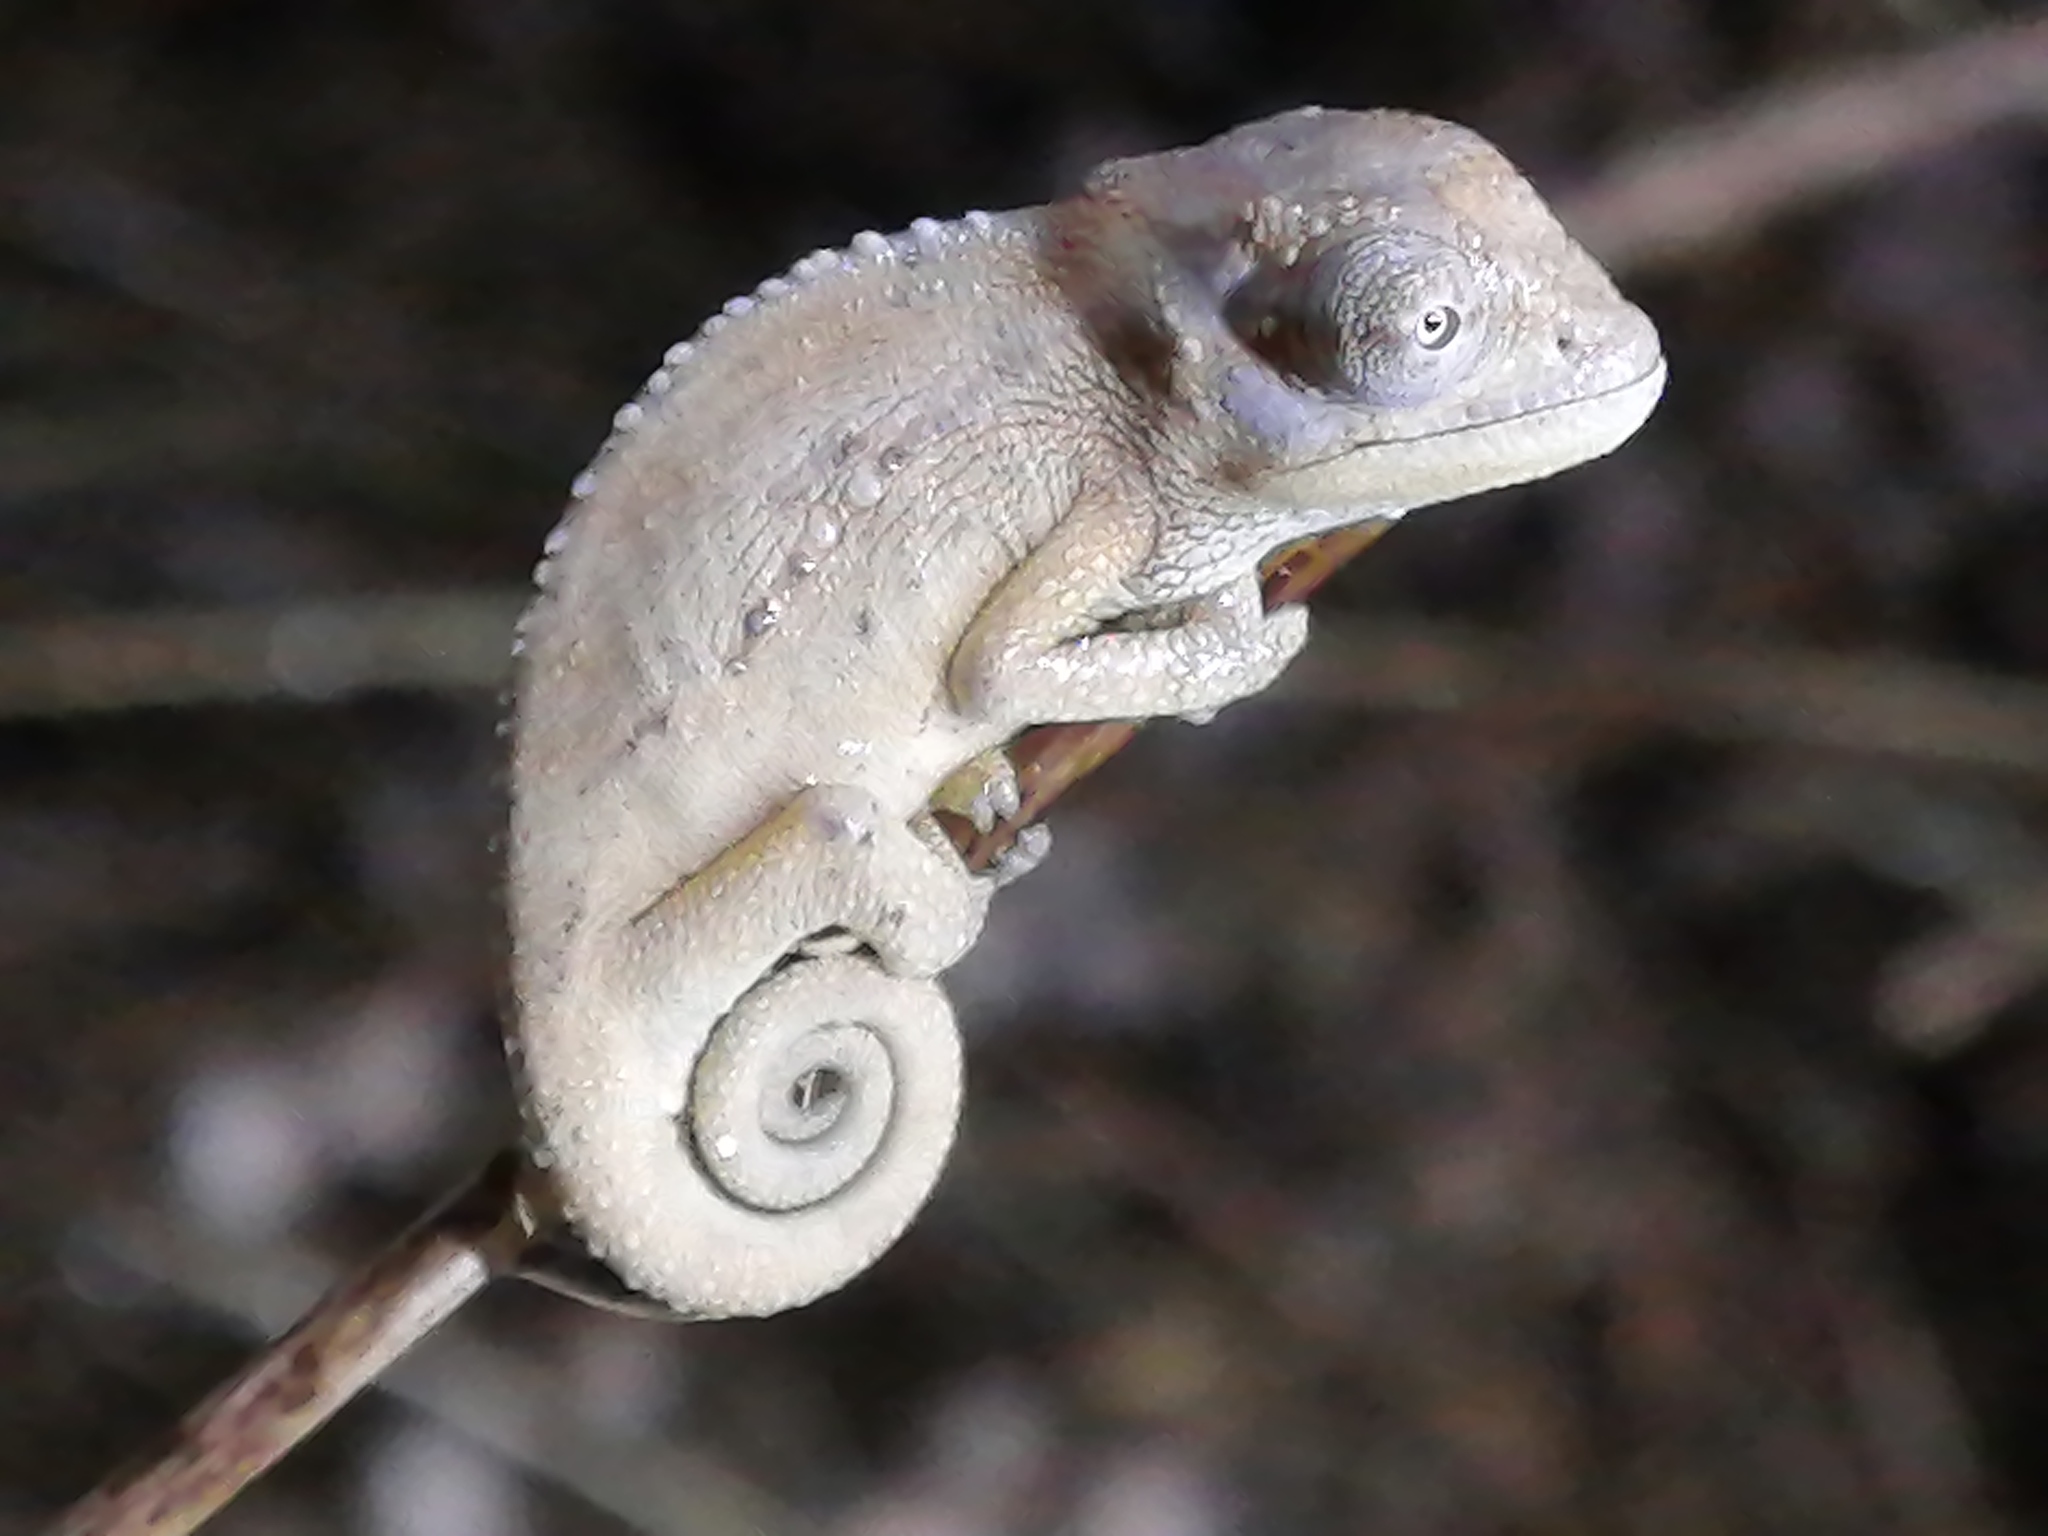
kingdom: Animalia
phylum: Chordata
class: Squamata
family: Chamaeleonidae
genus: Bradypodion
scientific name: Bradypodion pumilum
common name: Cape dwarf chameleon
